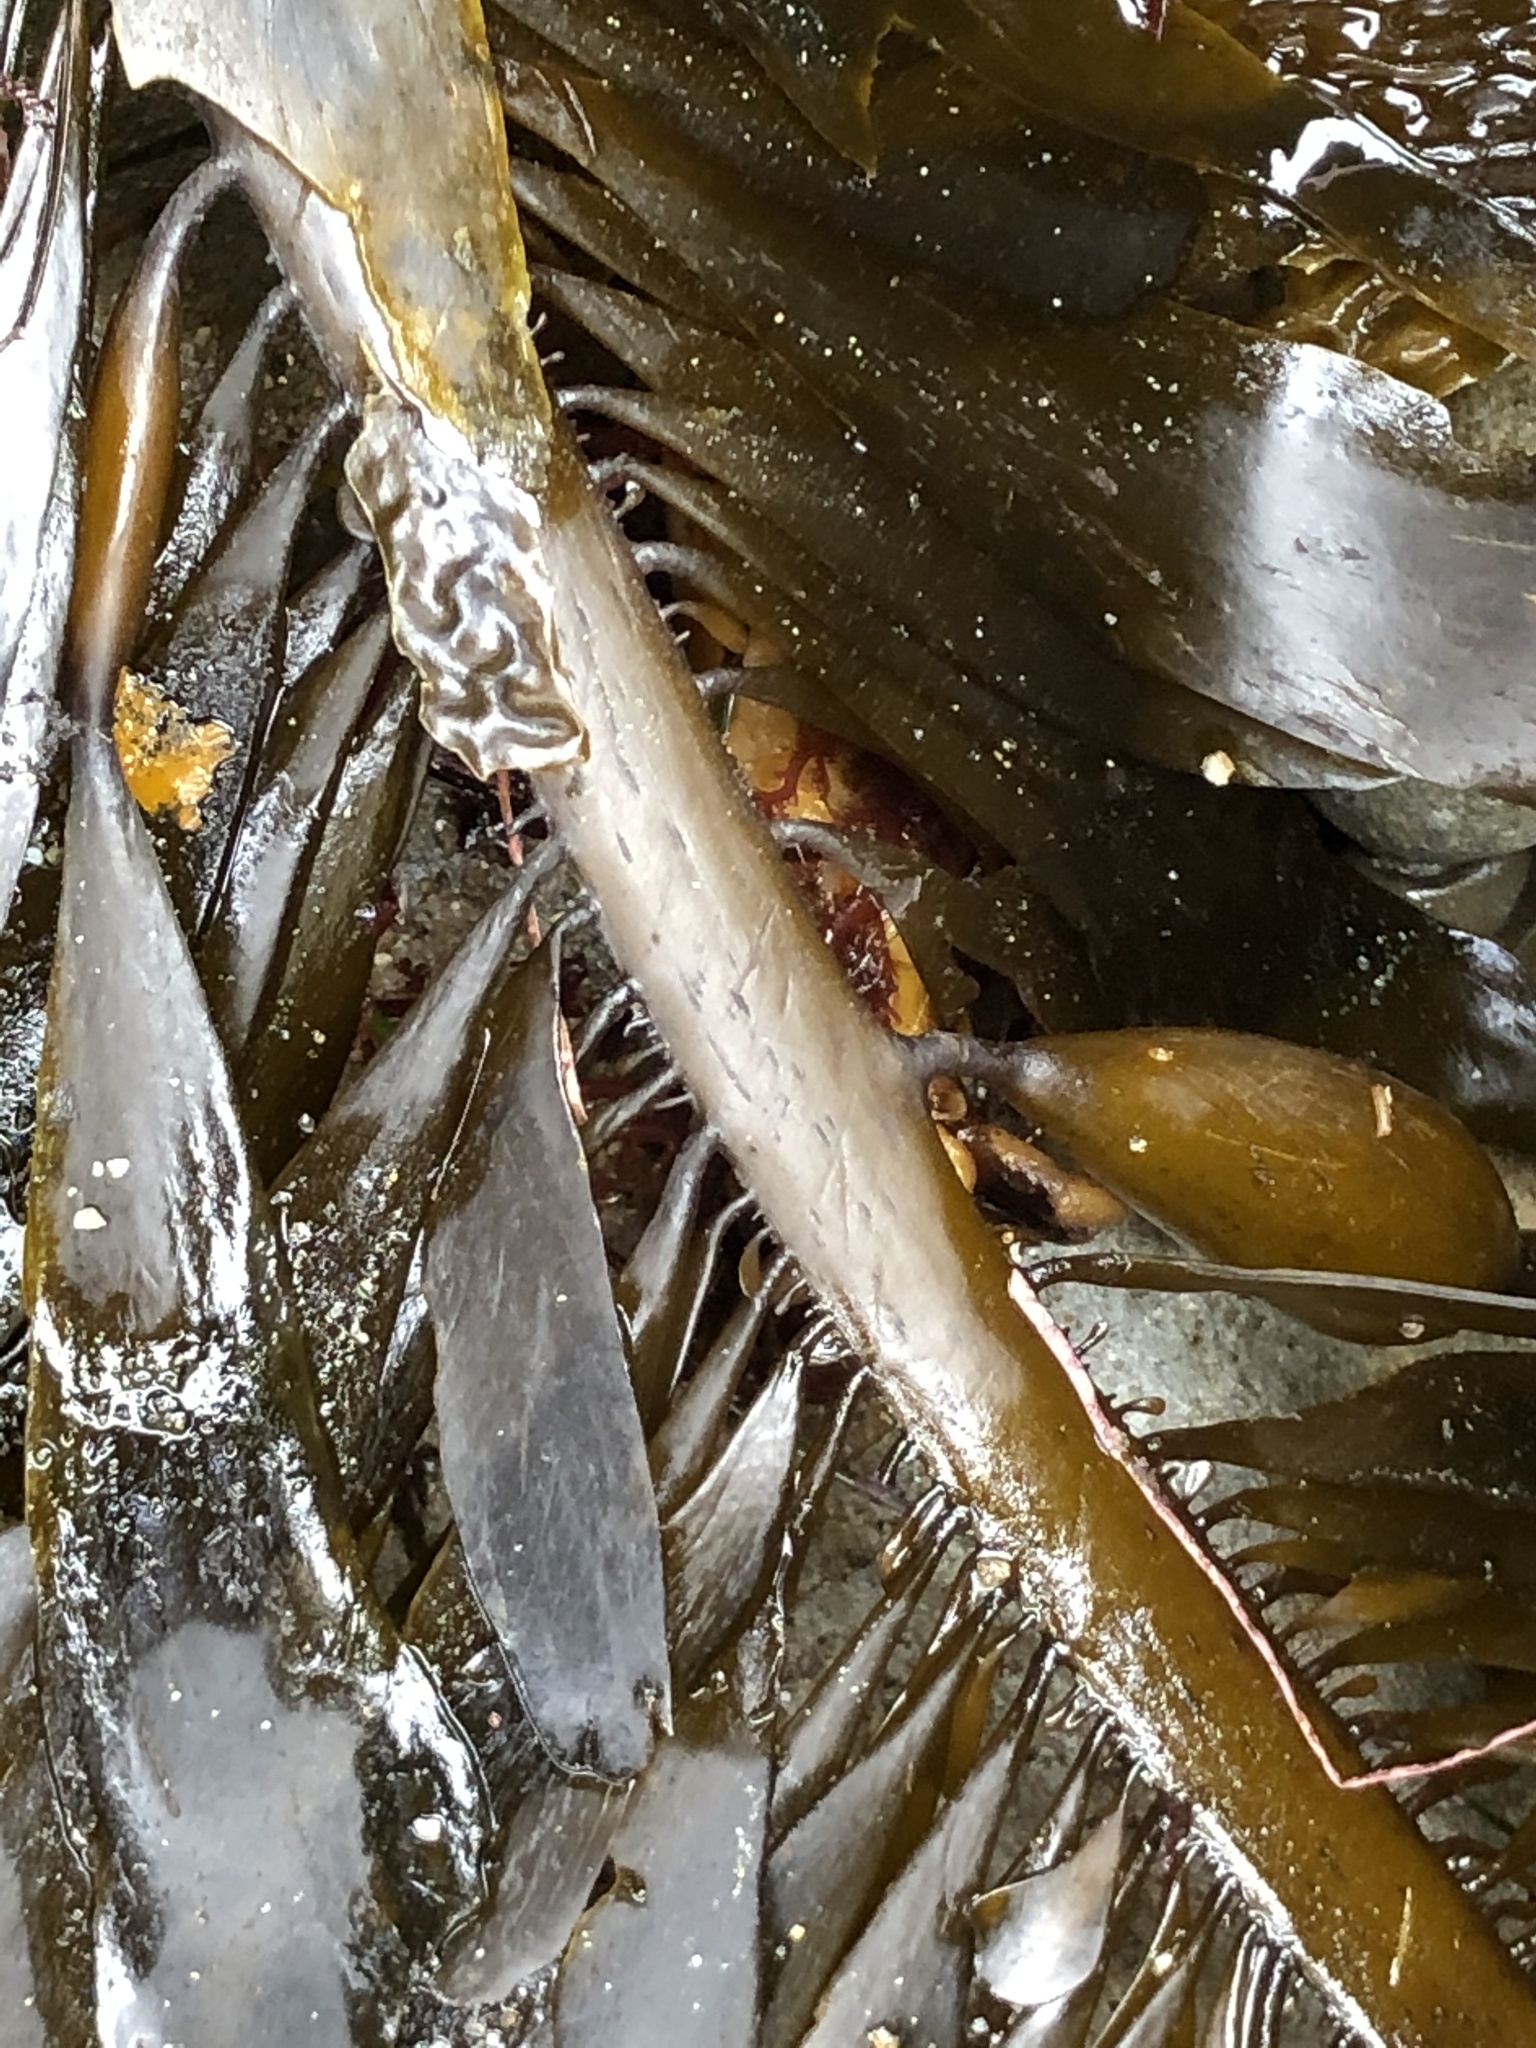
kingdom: Chromista
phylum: Ochrophyta
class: Phaeophyceae
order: Laminariales
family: Lessoniaceae
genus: Egregia
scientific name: Egregia menziesii
